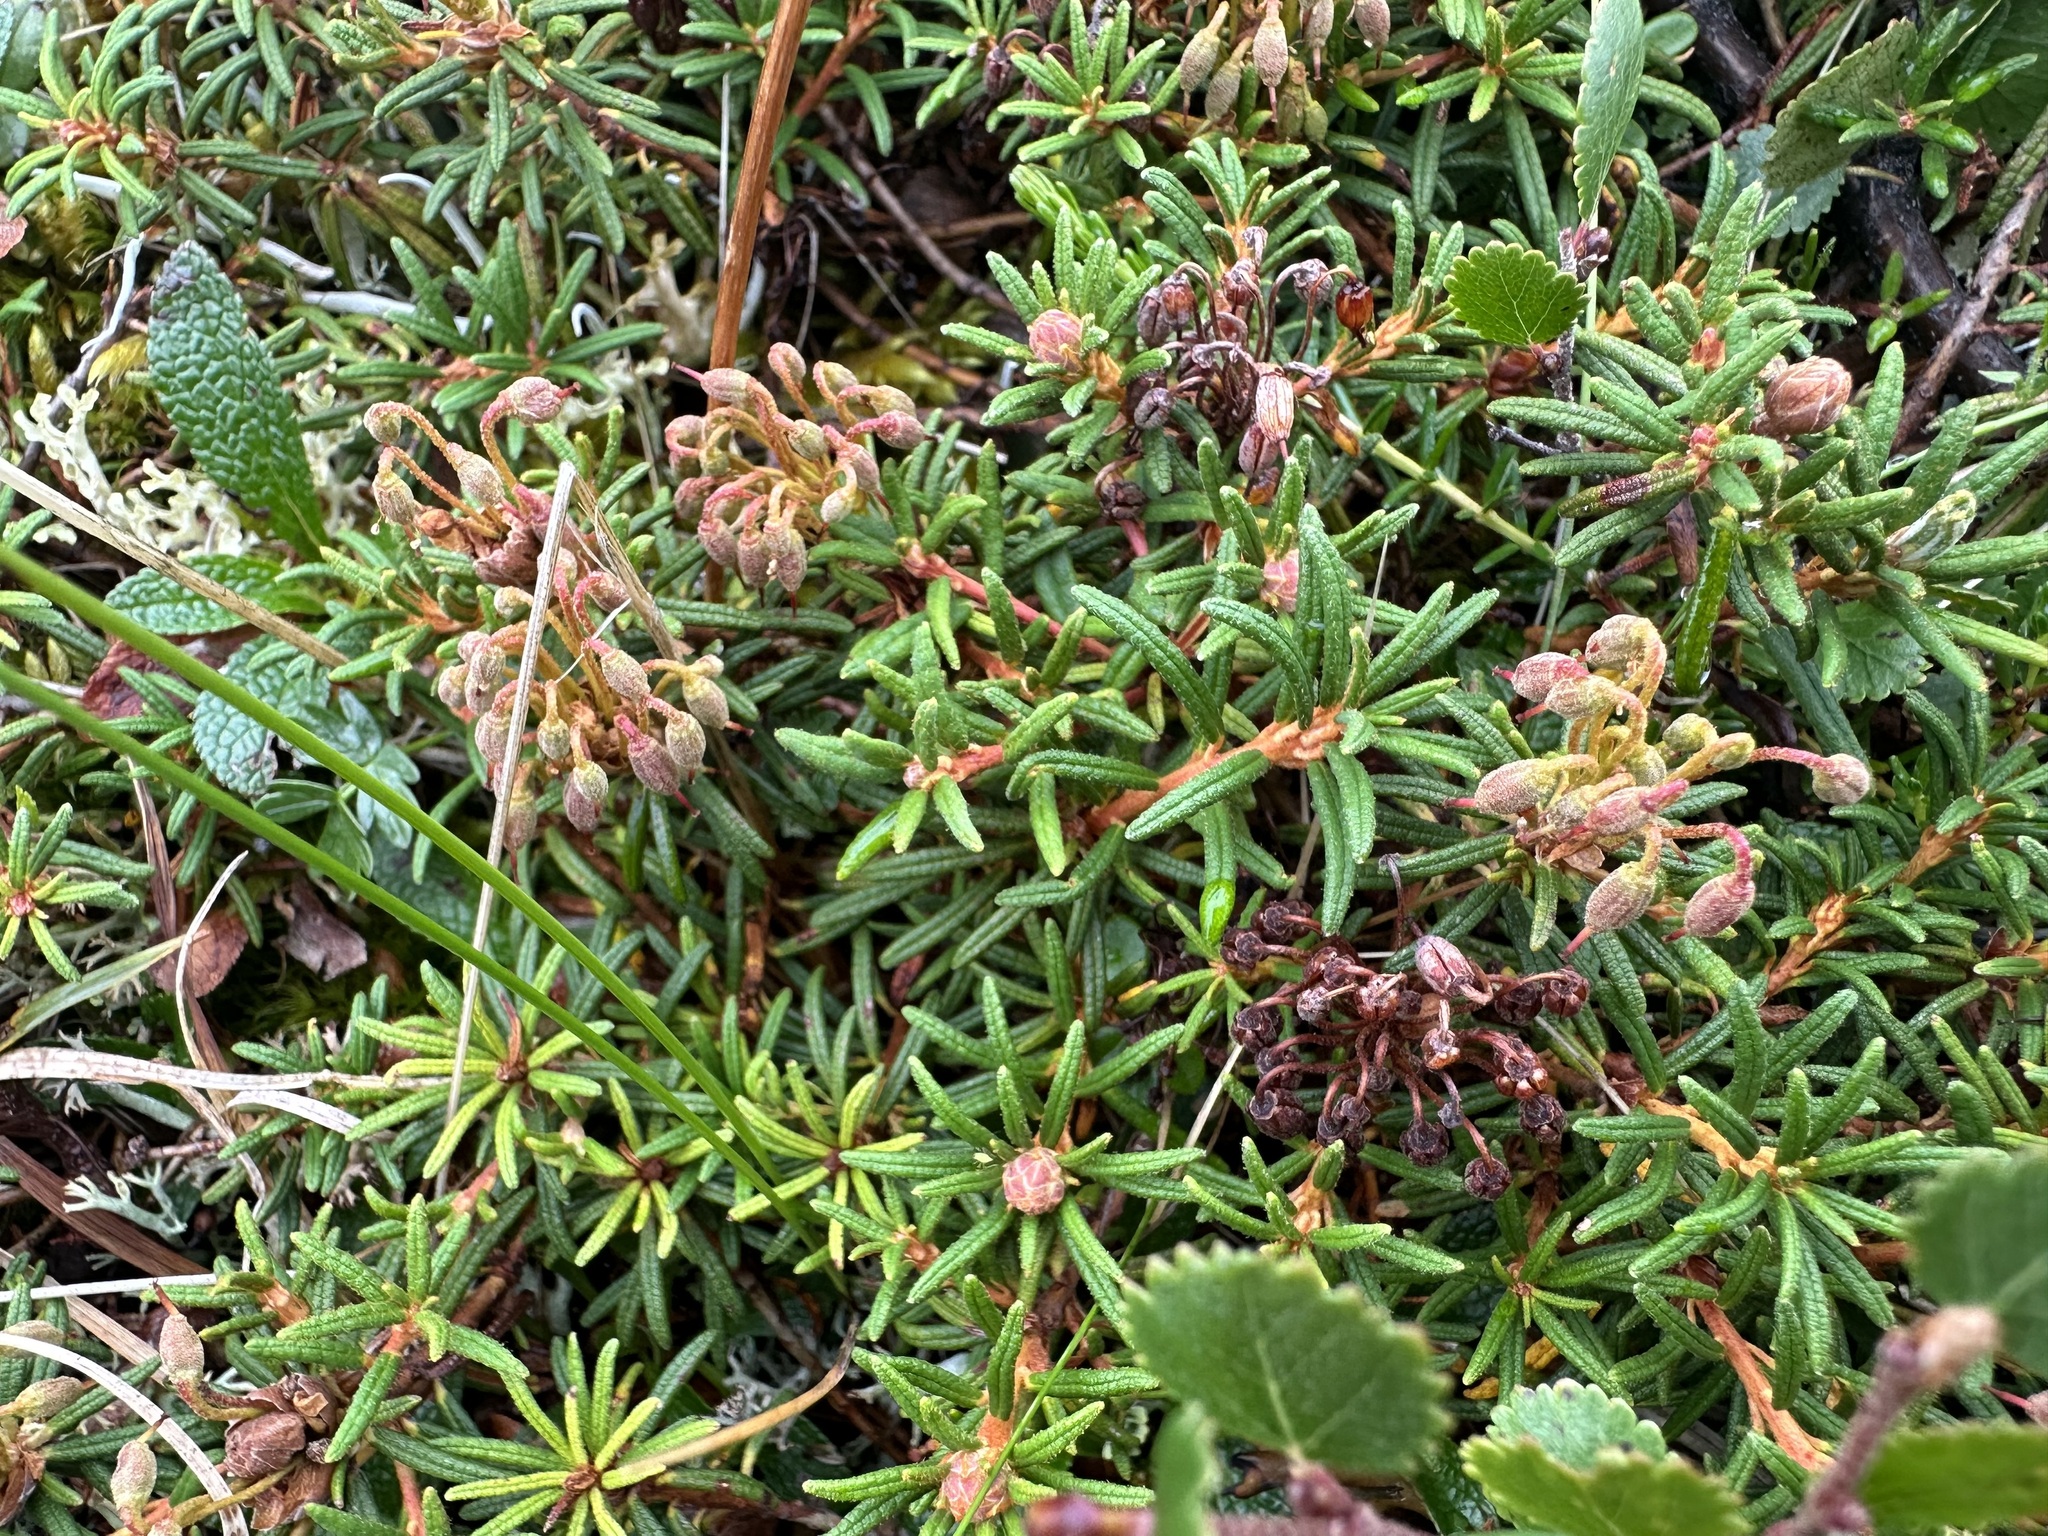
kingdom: Plantae
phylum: Tracheophyta
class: Magnoliopsida
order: Ericales
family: Ericaceae
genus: Rhododendron
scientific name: Rhododendron tomentosum
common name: Marsh labrador tea
